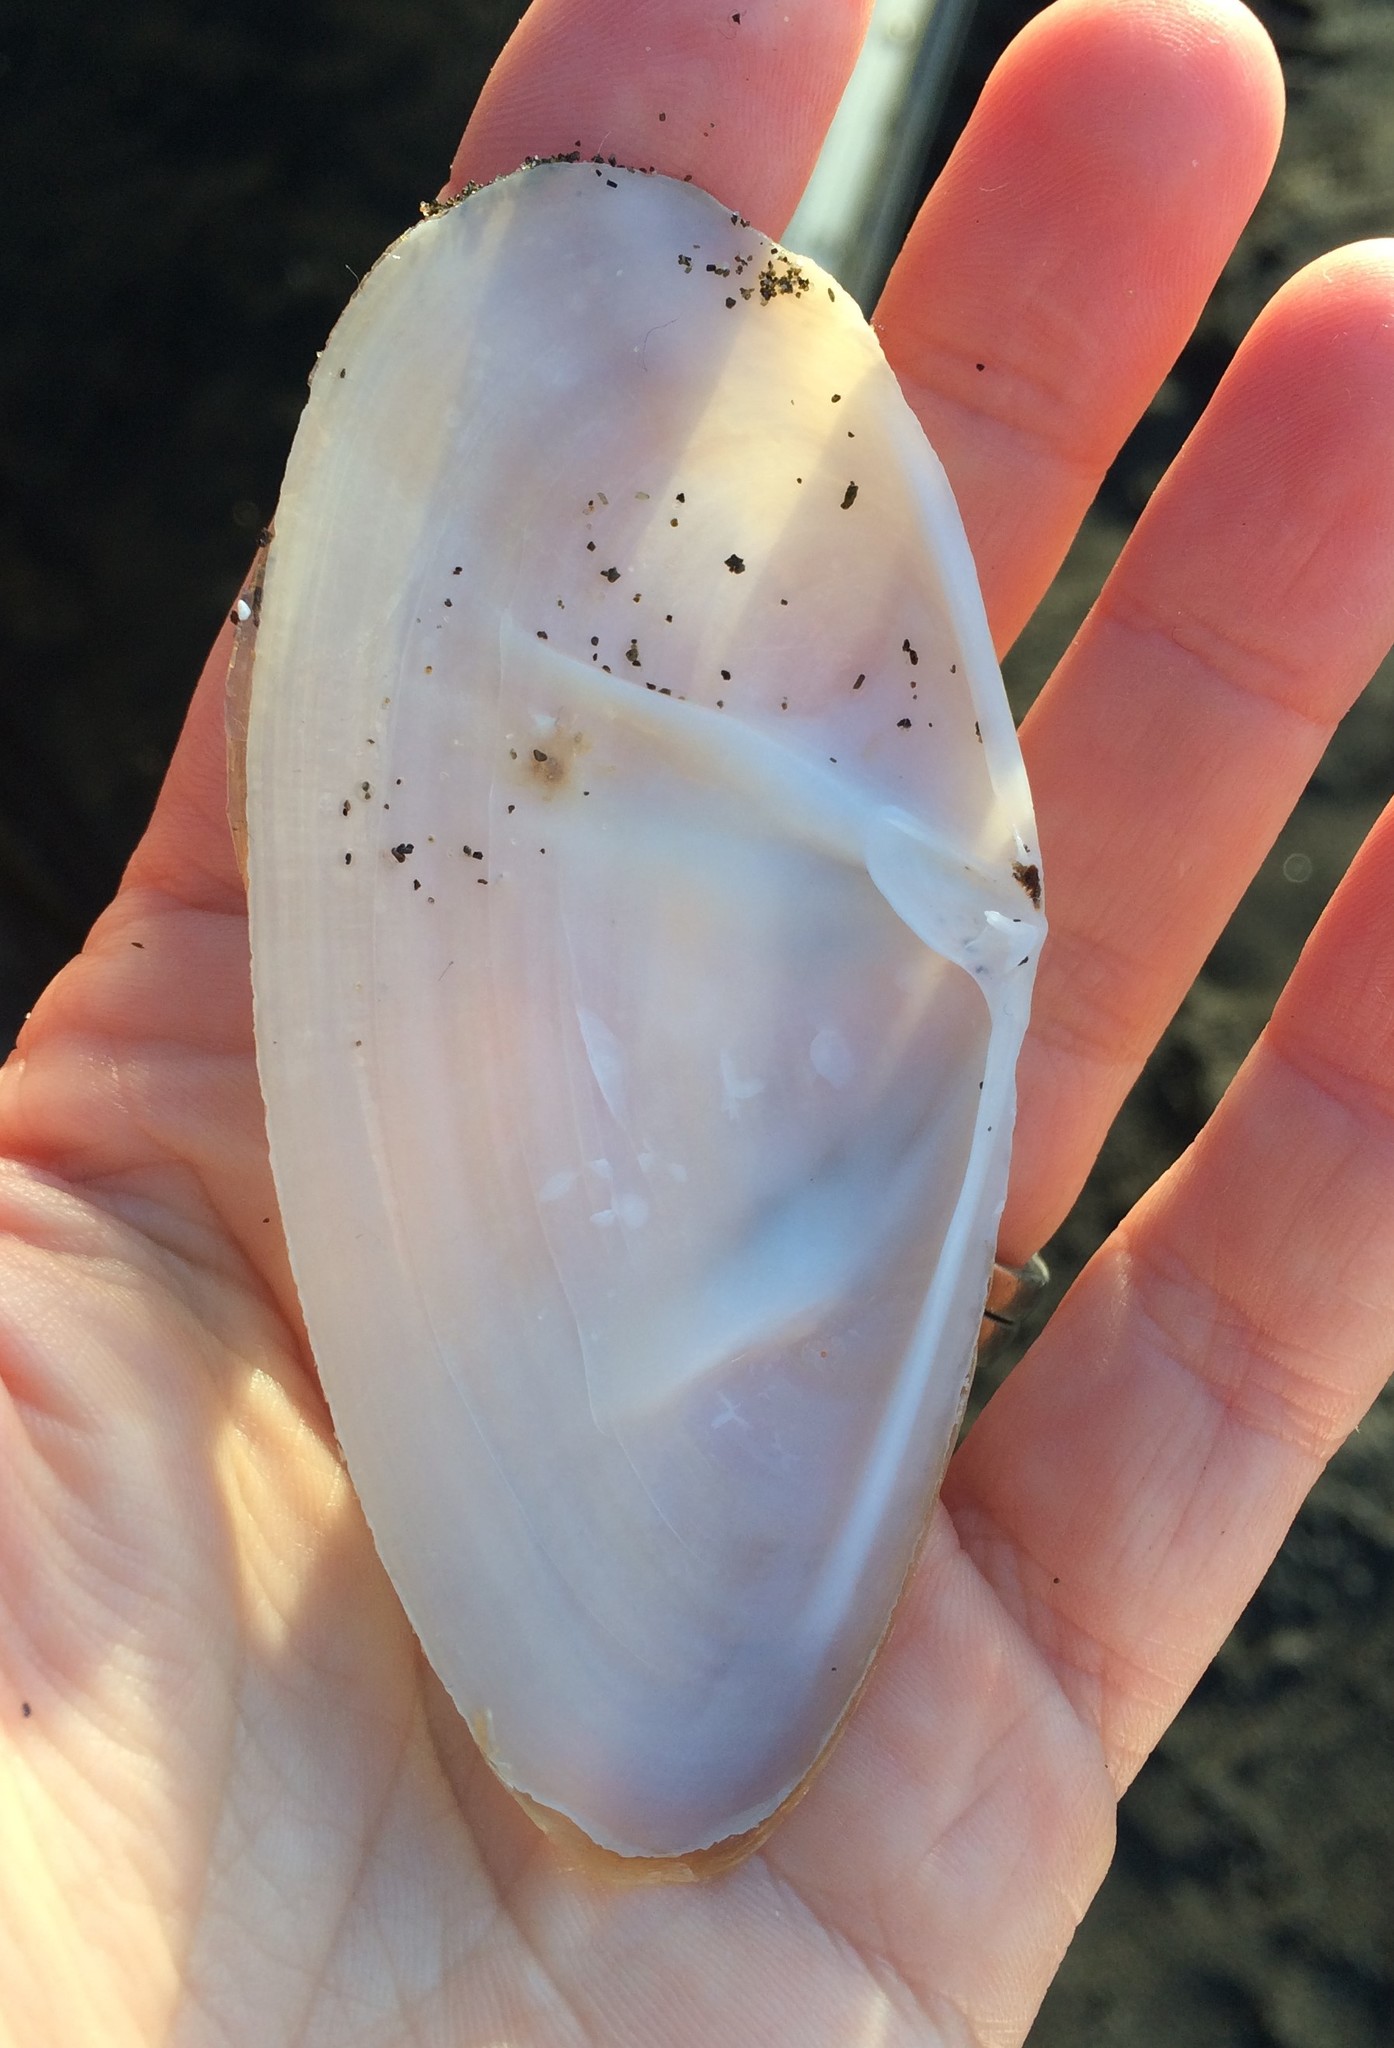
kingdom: Animalia
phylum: Mollusca
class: Bivalvia
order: Venerida
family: Mactridae
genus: Resania
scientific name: Resania lanceolata
